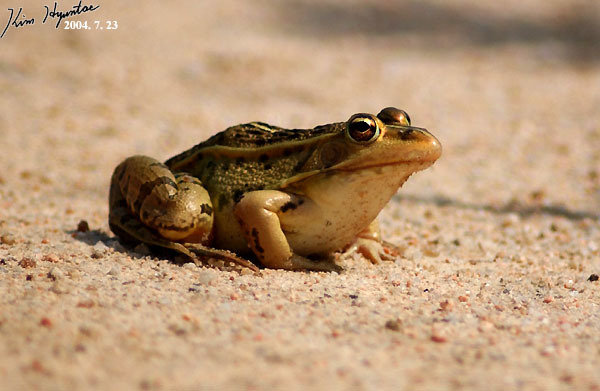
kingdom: Animalia
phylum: Chordata
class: Amphibia
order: Anura
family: Ranidae
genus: Pelophylax
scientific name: Pelophylax nigromaculatus
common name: Black-spotted pond frog
